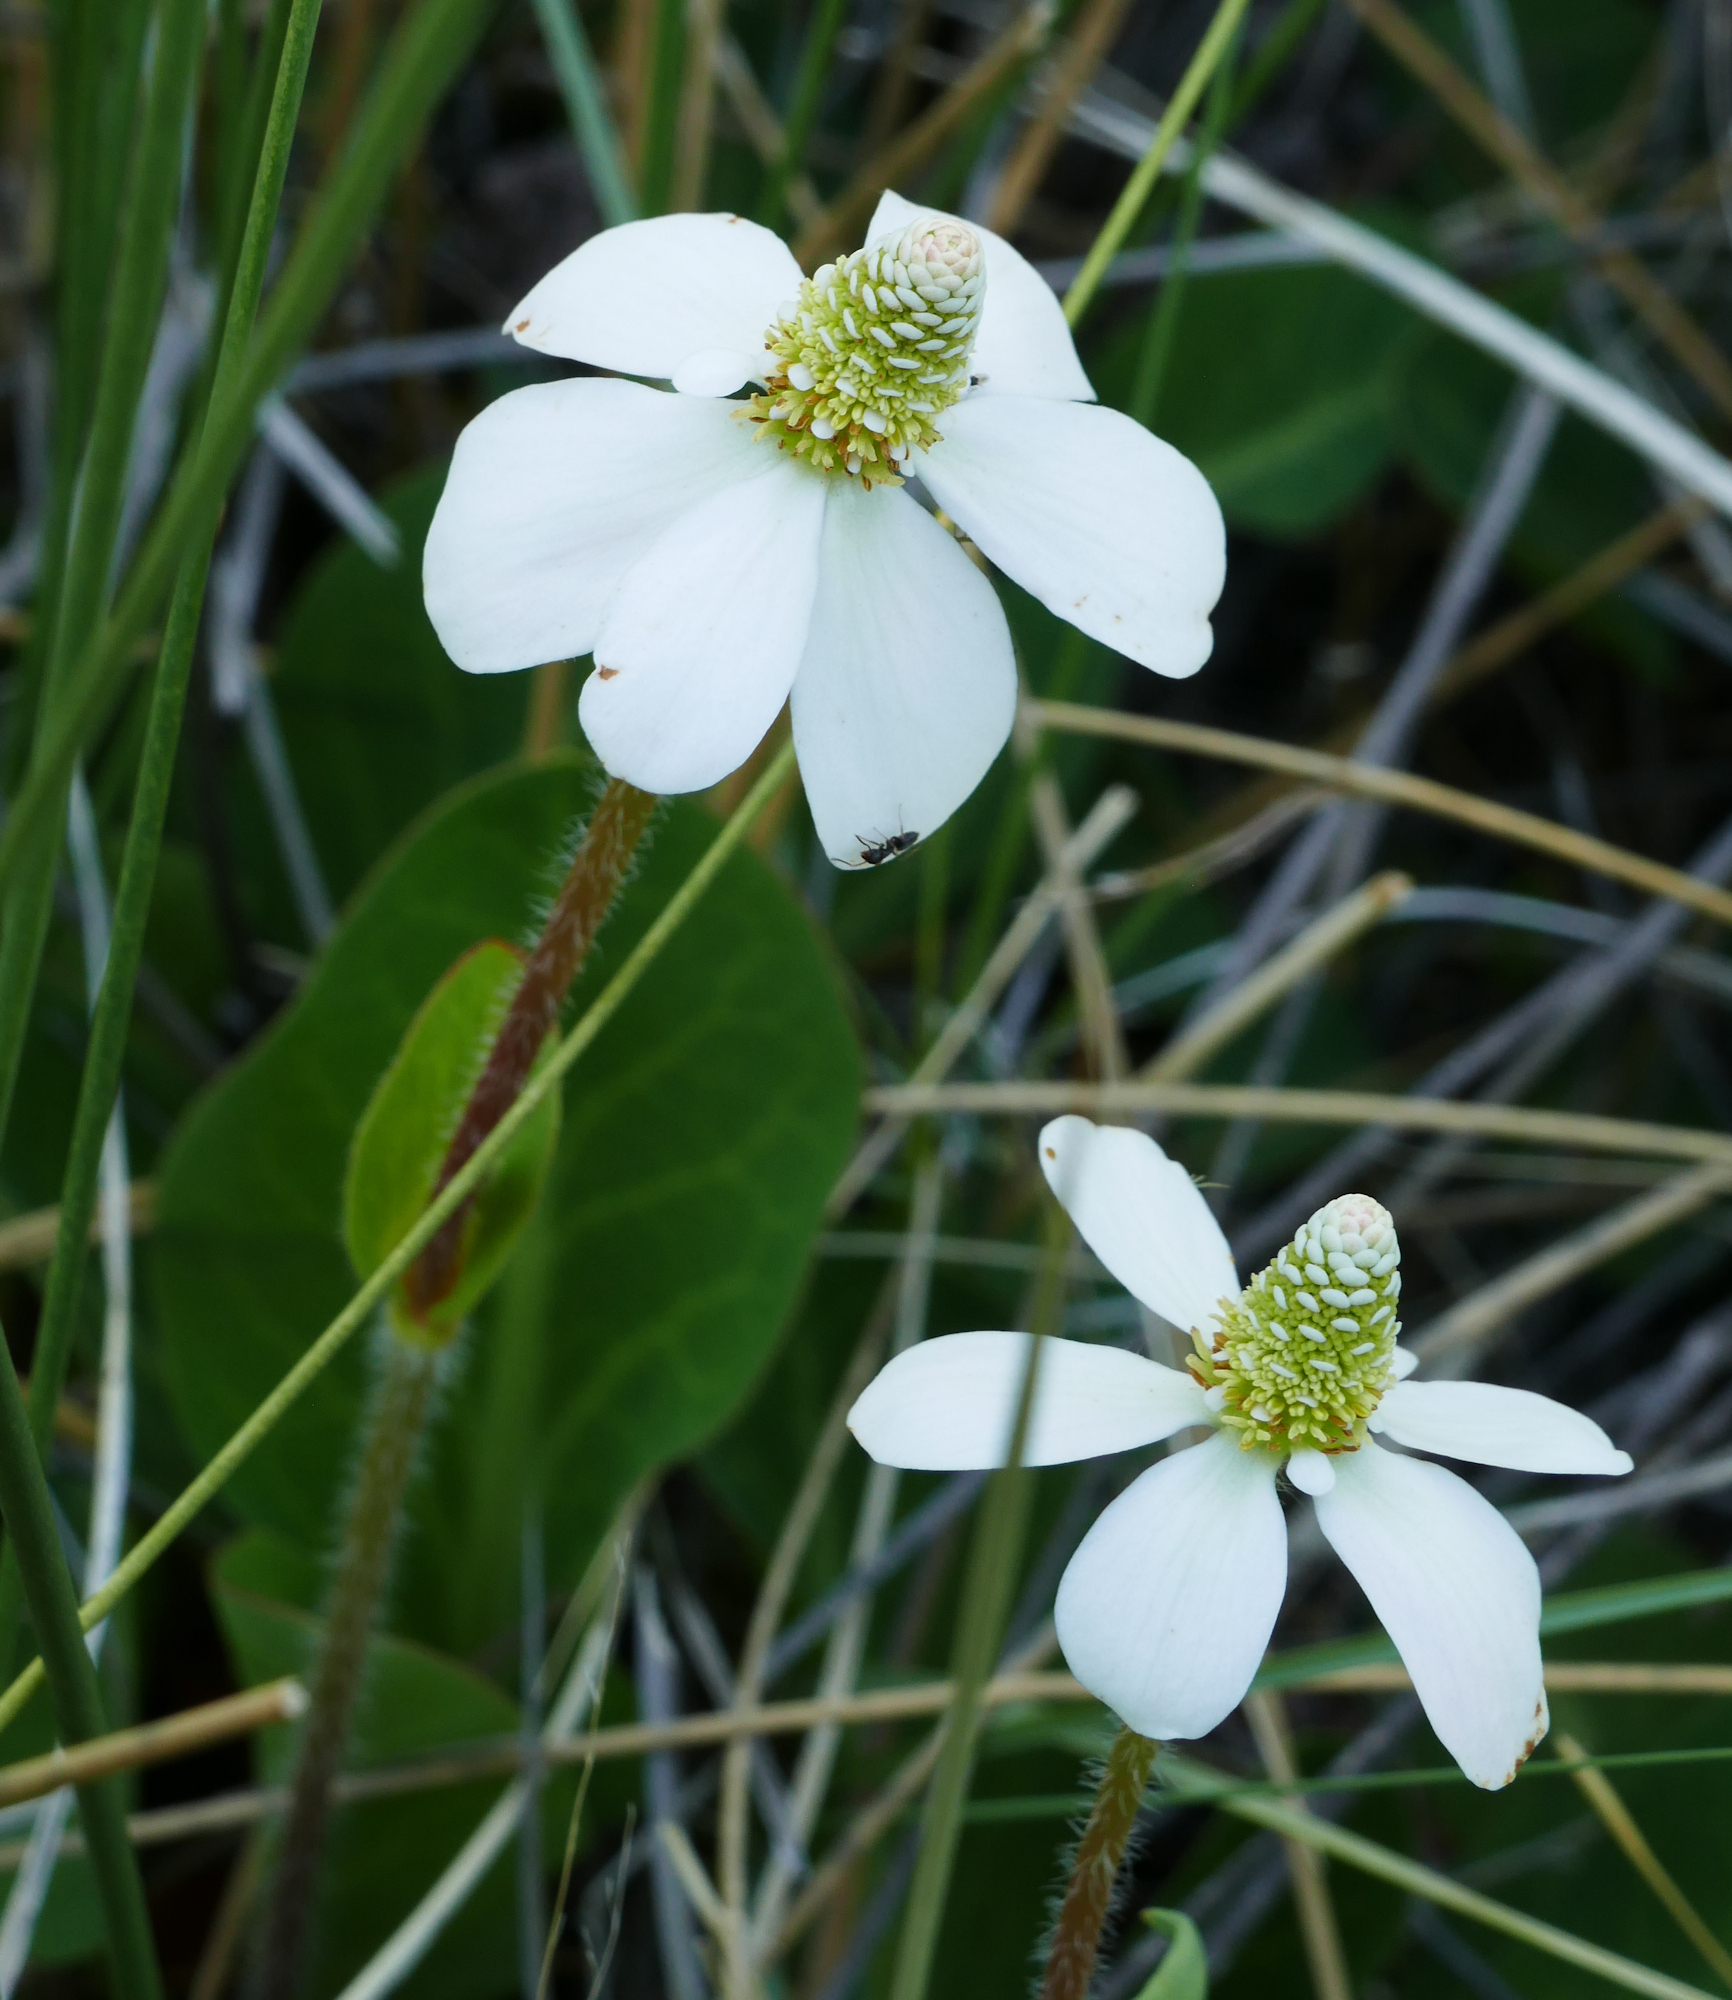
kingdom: Plantae
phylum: Tracheophyta
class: Magnoliopsida
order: Piperales
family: Saururaceae
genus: Anemopsis
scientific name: Anemopsis californica
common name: Apache-beads
